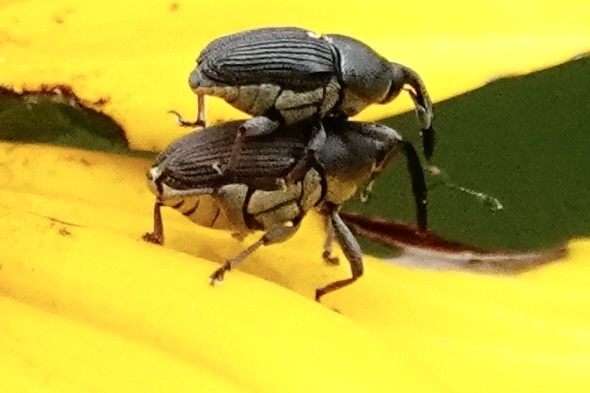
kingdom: Animalia
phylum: Arthropoda
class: Insecta
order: Coleoptera
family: Curculionidae
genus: Odontocorynus
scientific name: Odontocorynus umbellae
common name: Daisy flower weevil
